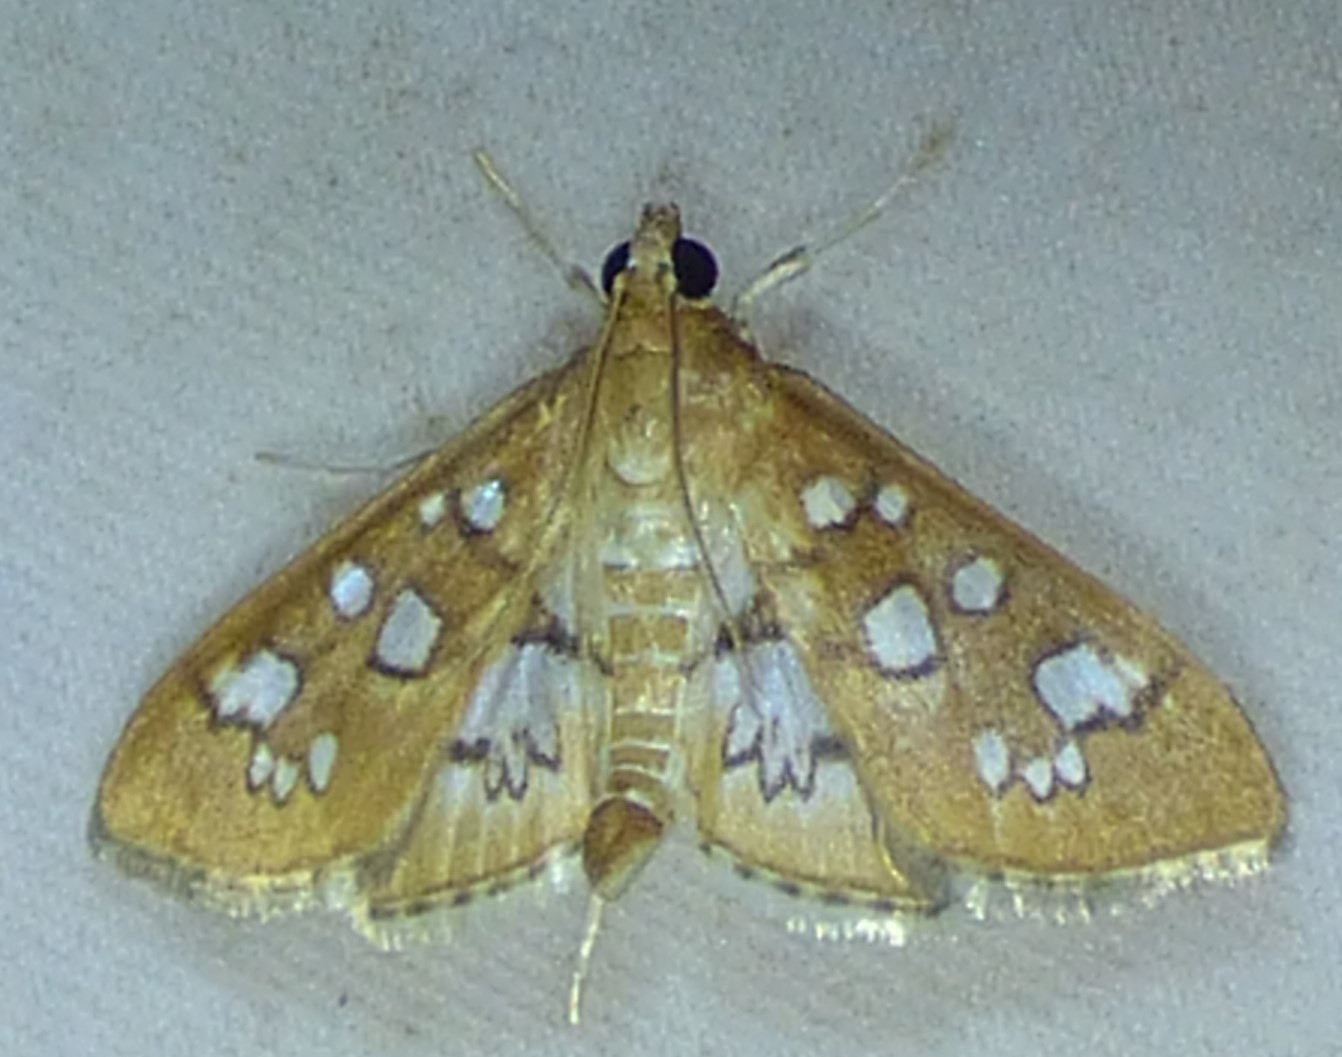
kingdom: Animalia
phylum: Arthropoda
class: Insecta
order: Lepidoptera
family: Crambidae
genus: Samea
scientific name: Samea baccatalis
